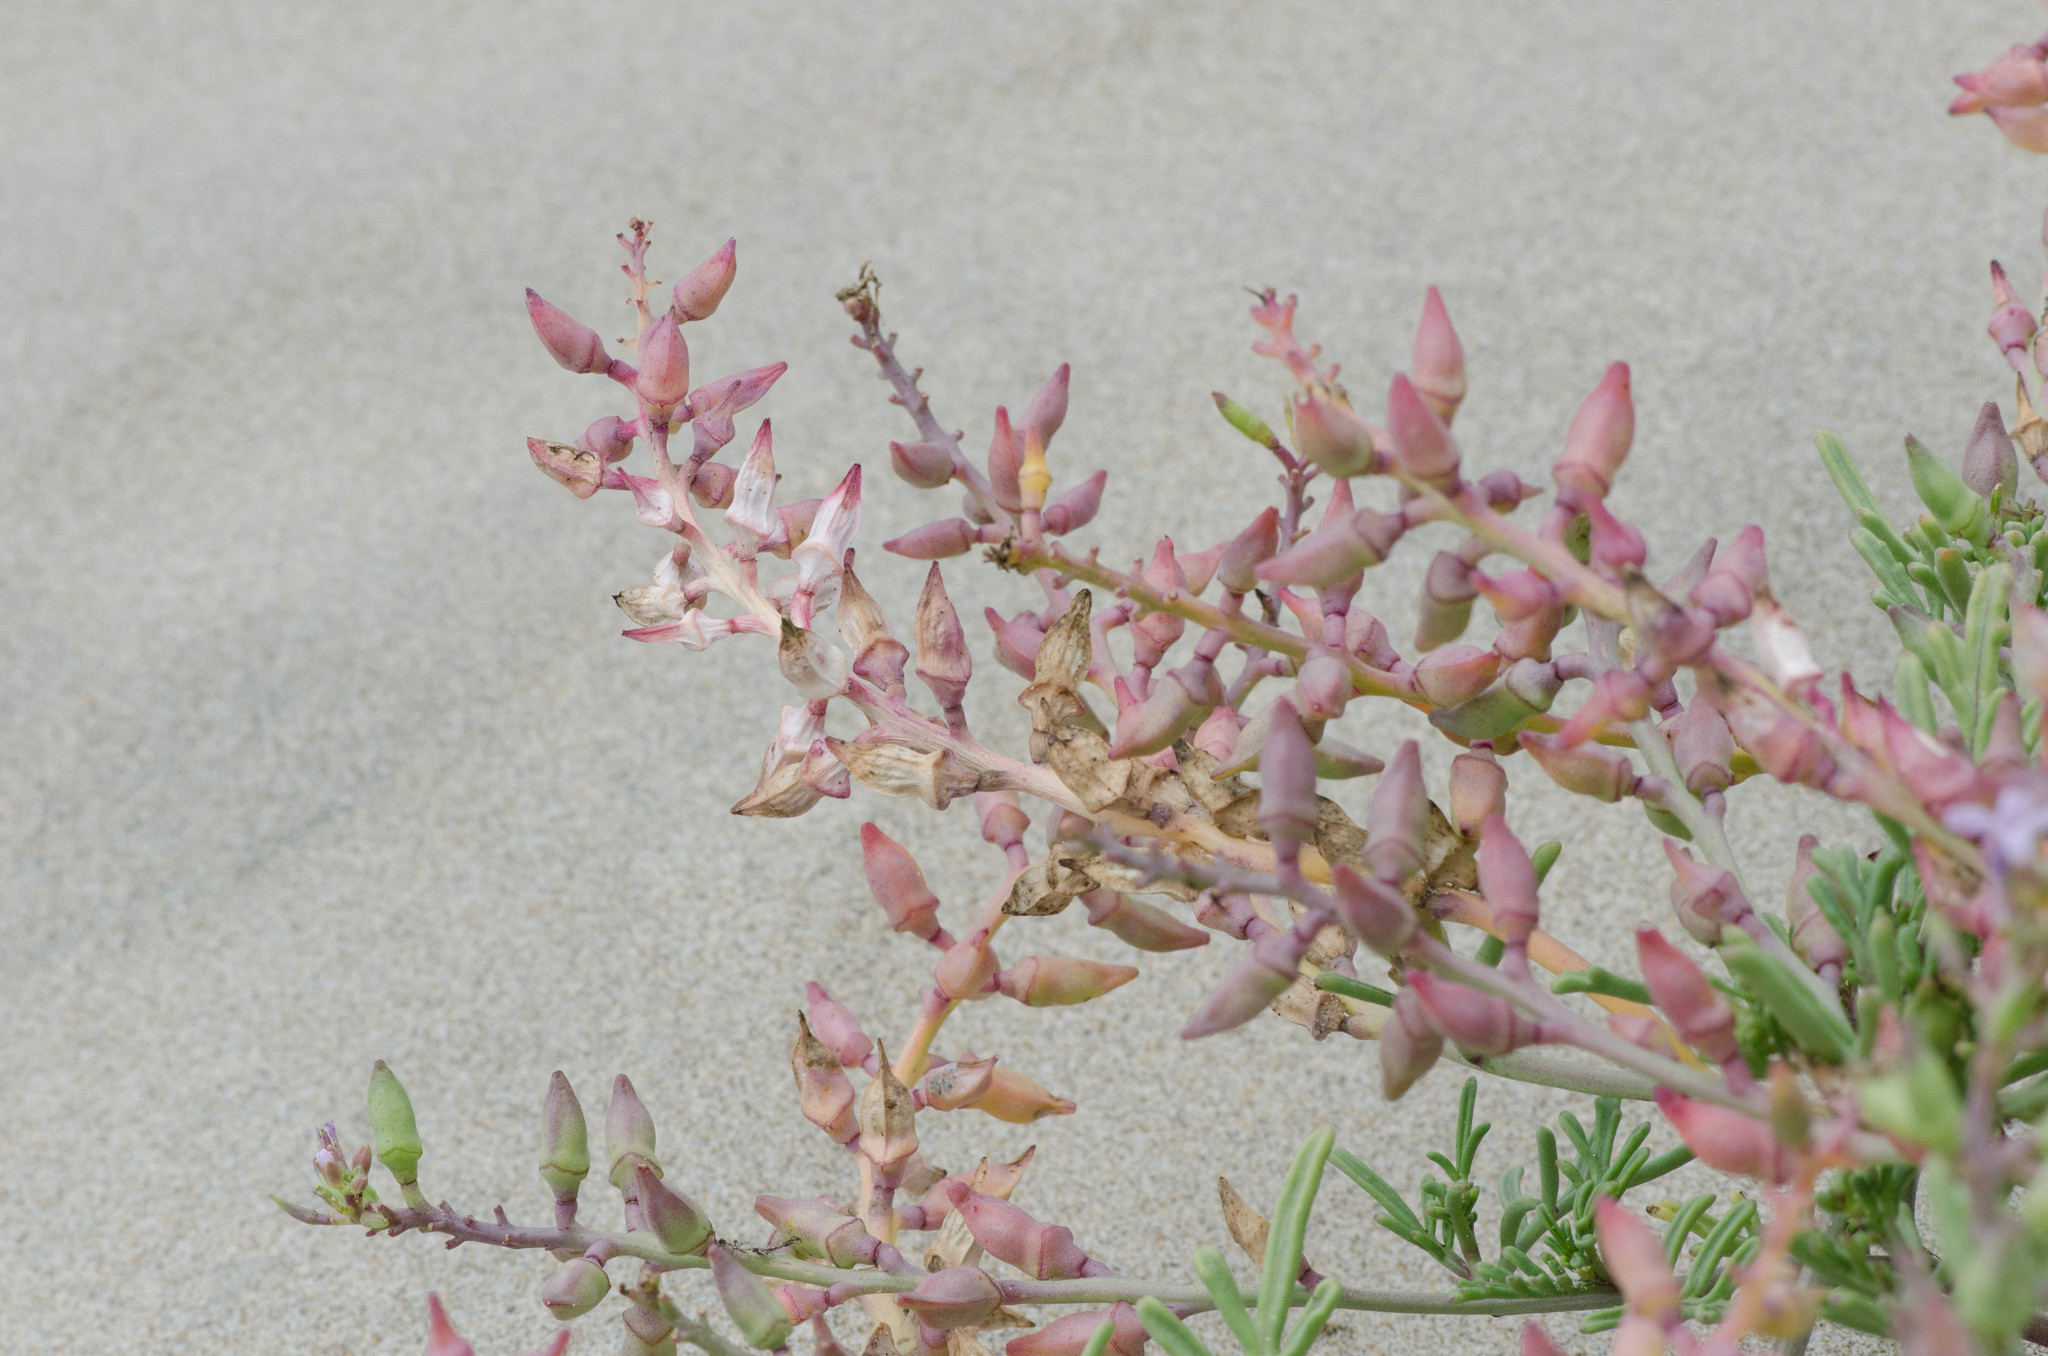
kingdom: Plantae
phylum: Tracheophyta
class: Magnoliopsida
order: Brassicales
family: Brassicaceae
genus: Cakile
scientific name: Cakile maritima
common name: Sea rocket
